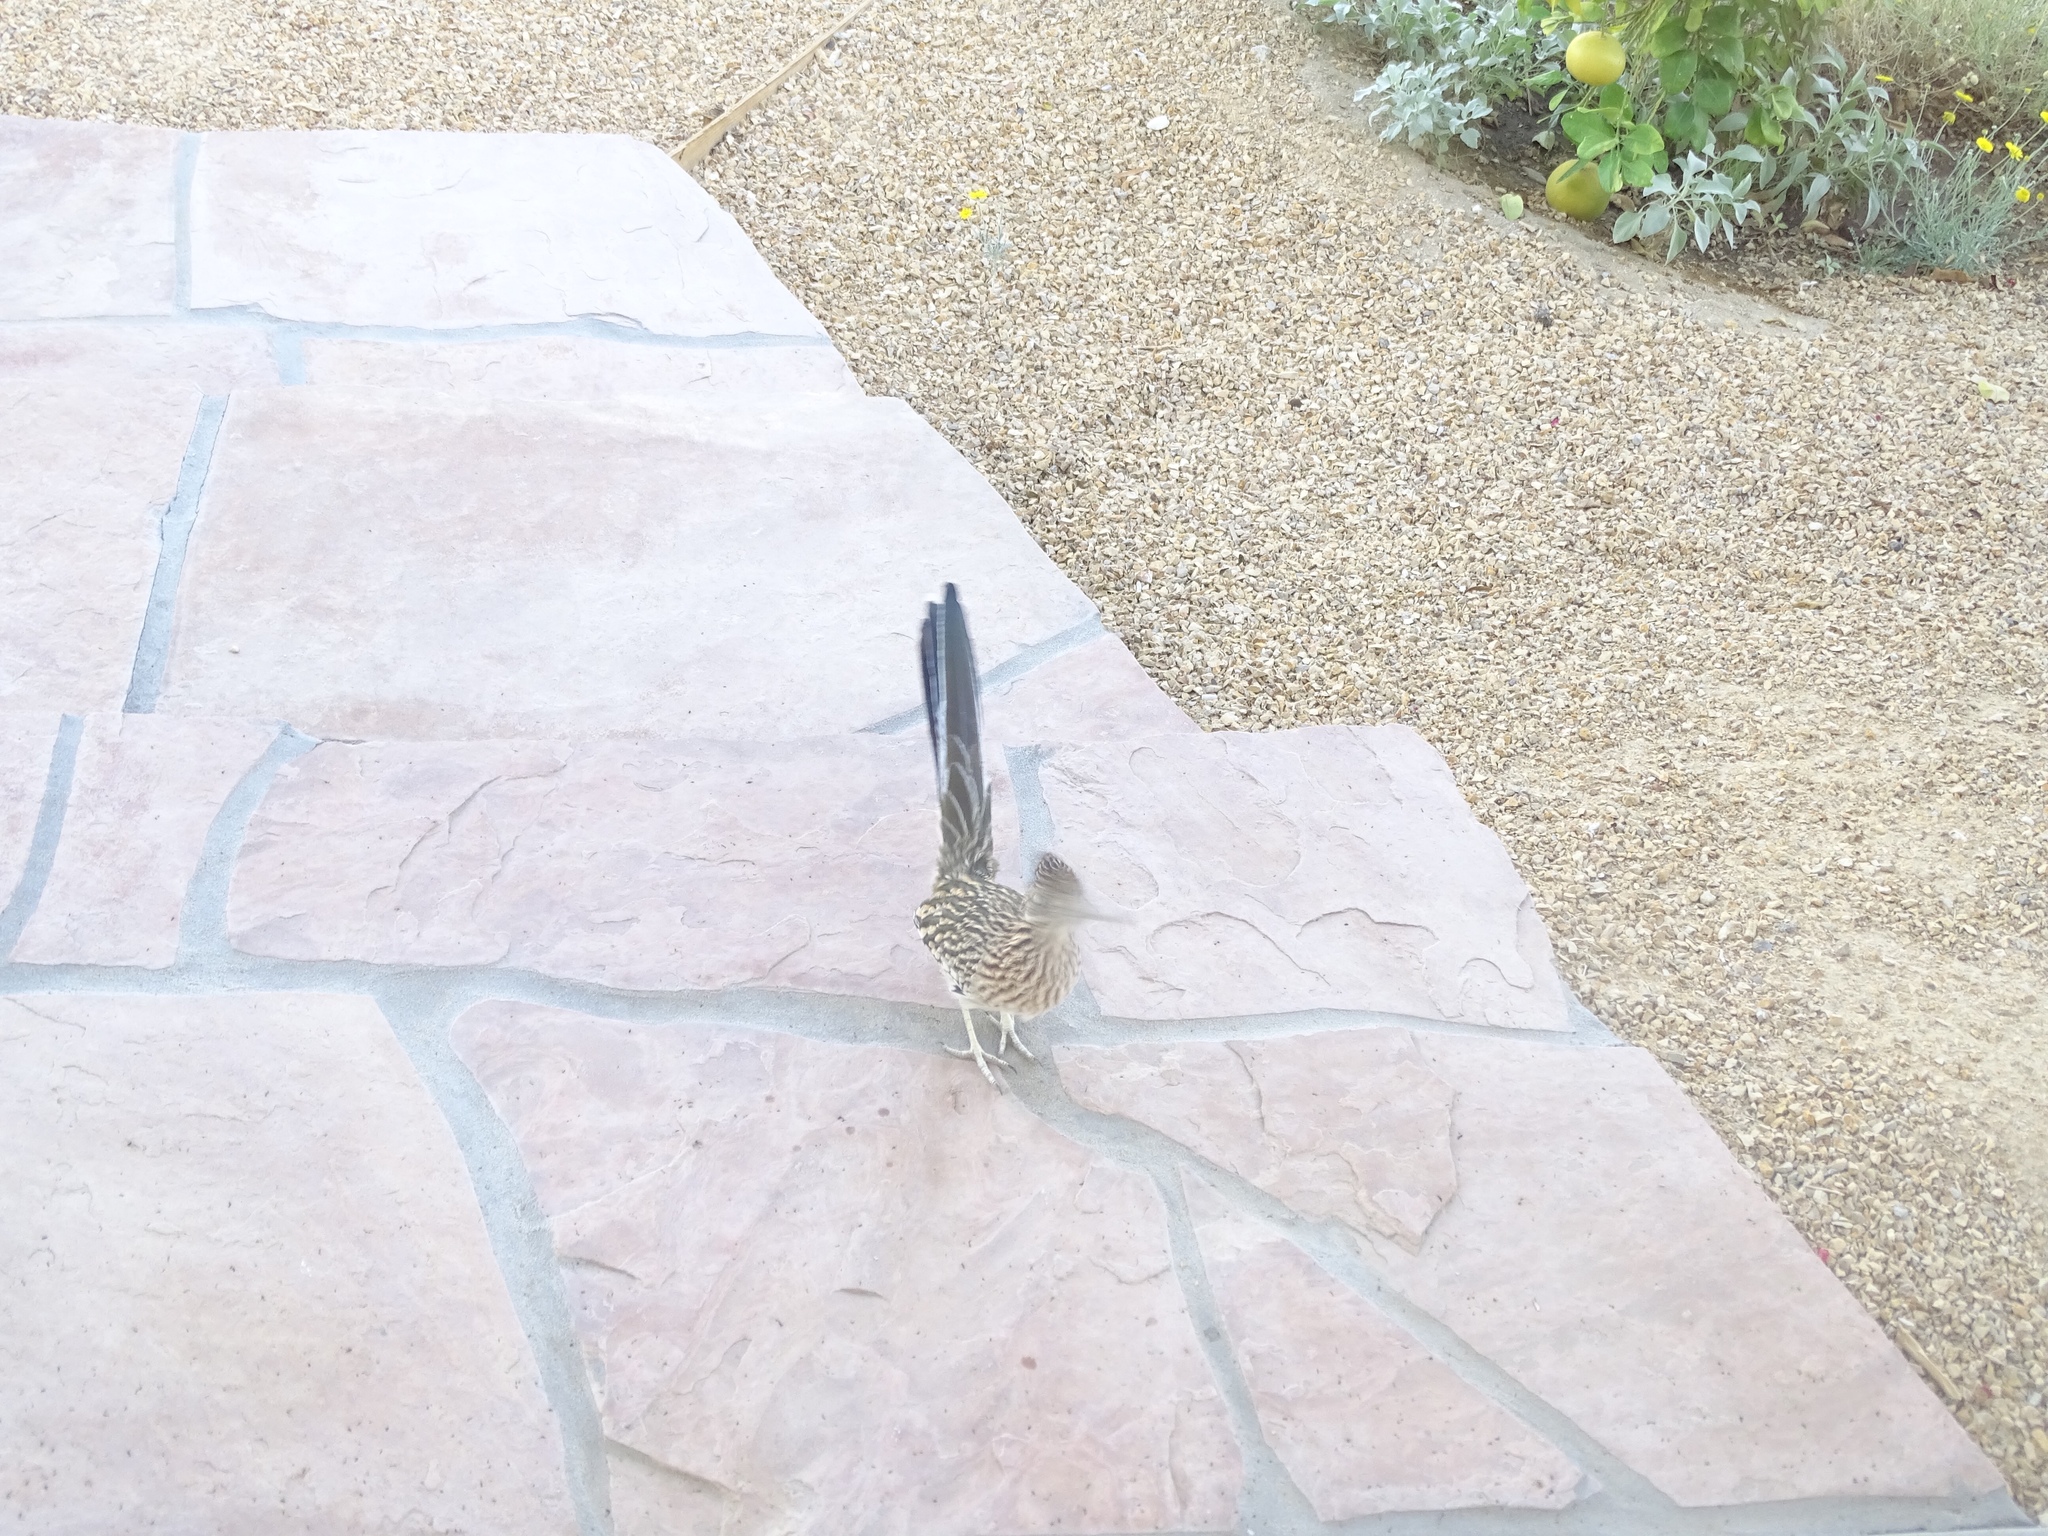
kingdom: Animalia
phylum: Chordata
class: Aves
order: Cuculiformes
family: Cuculidae
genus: Geococcyx
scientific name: Geococcyx californianus
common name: Greater roadrunner
